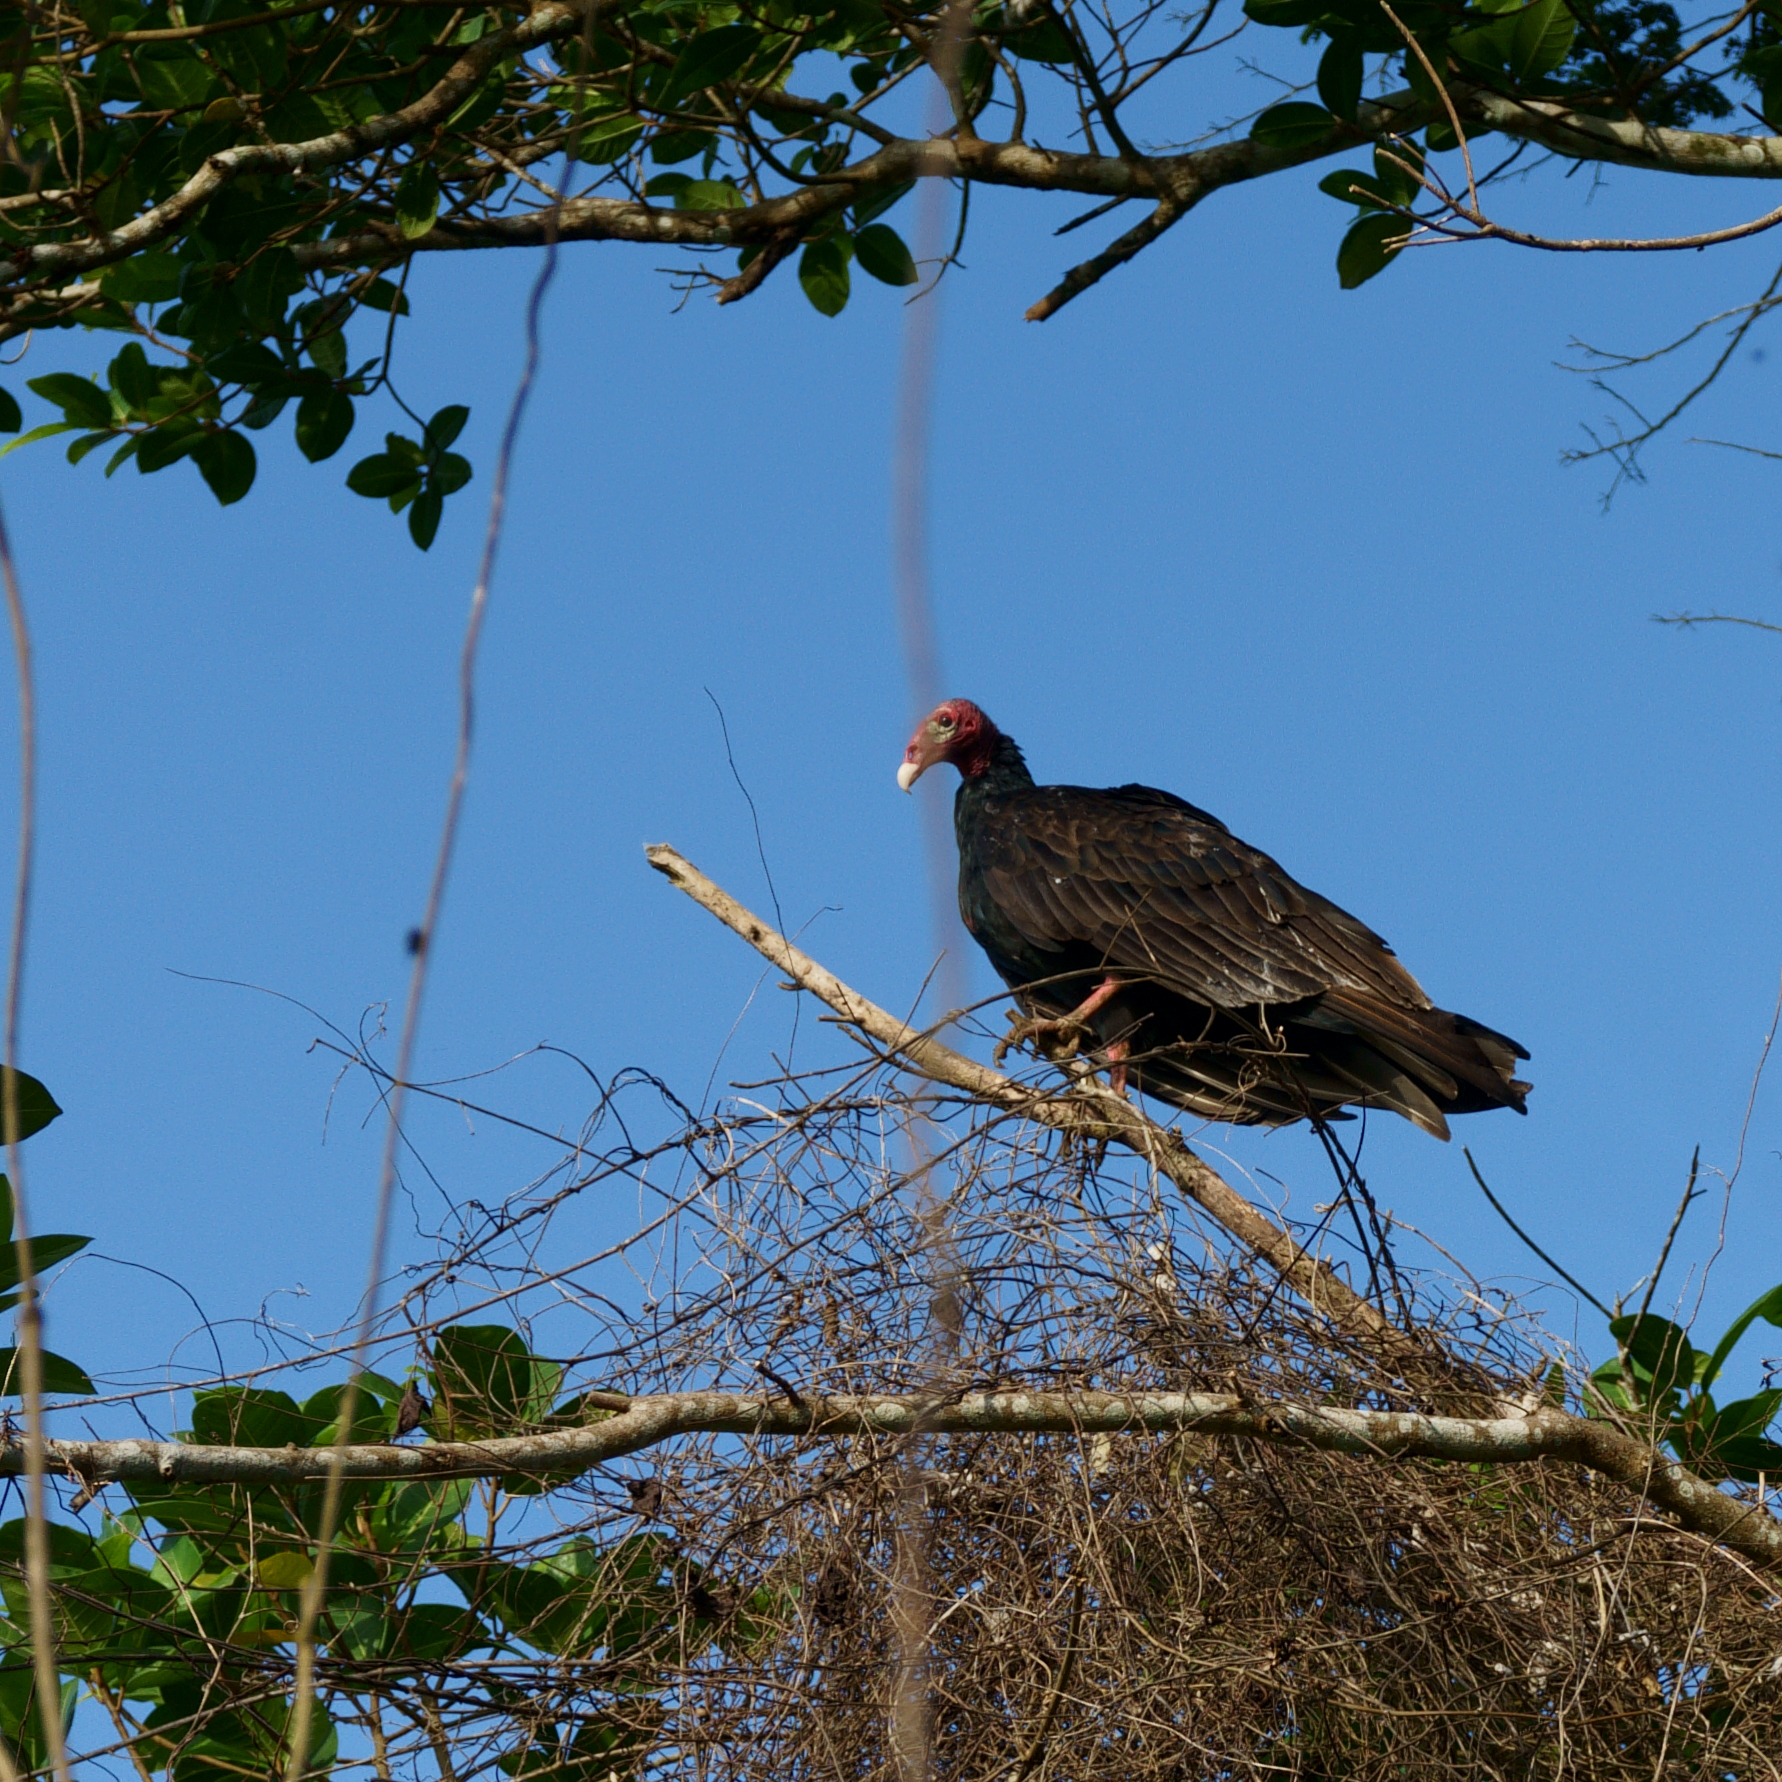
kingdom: Animalia
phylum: Chordata
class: Aves
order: Accipitriformes
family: Cathartidae
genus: Cathartes
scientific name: Cathartes aura
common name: Turkey vulture
